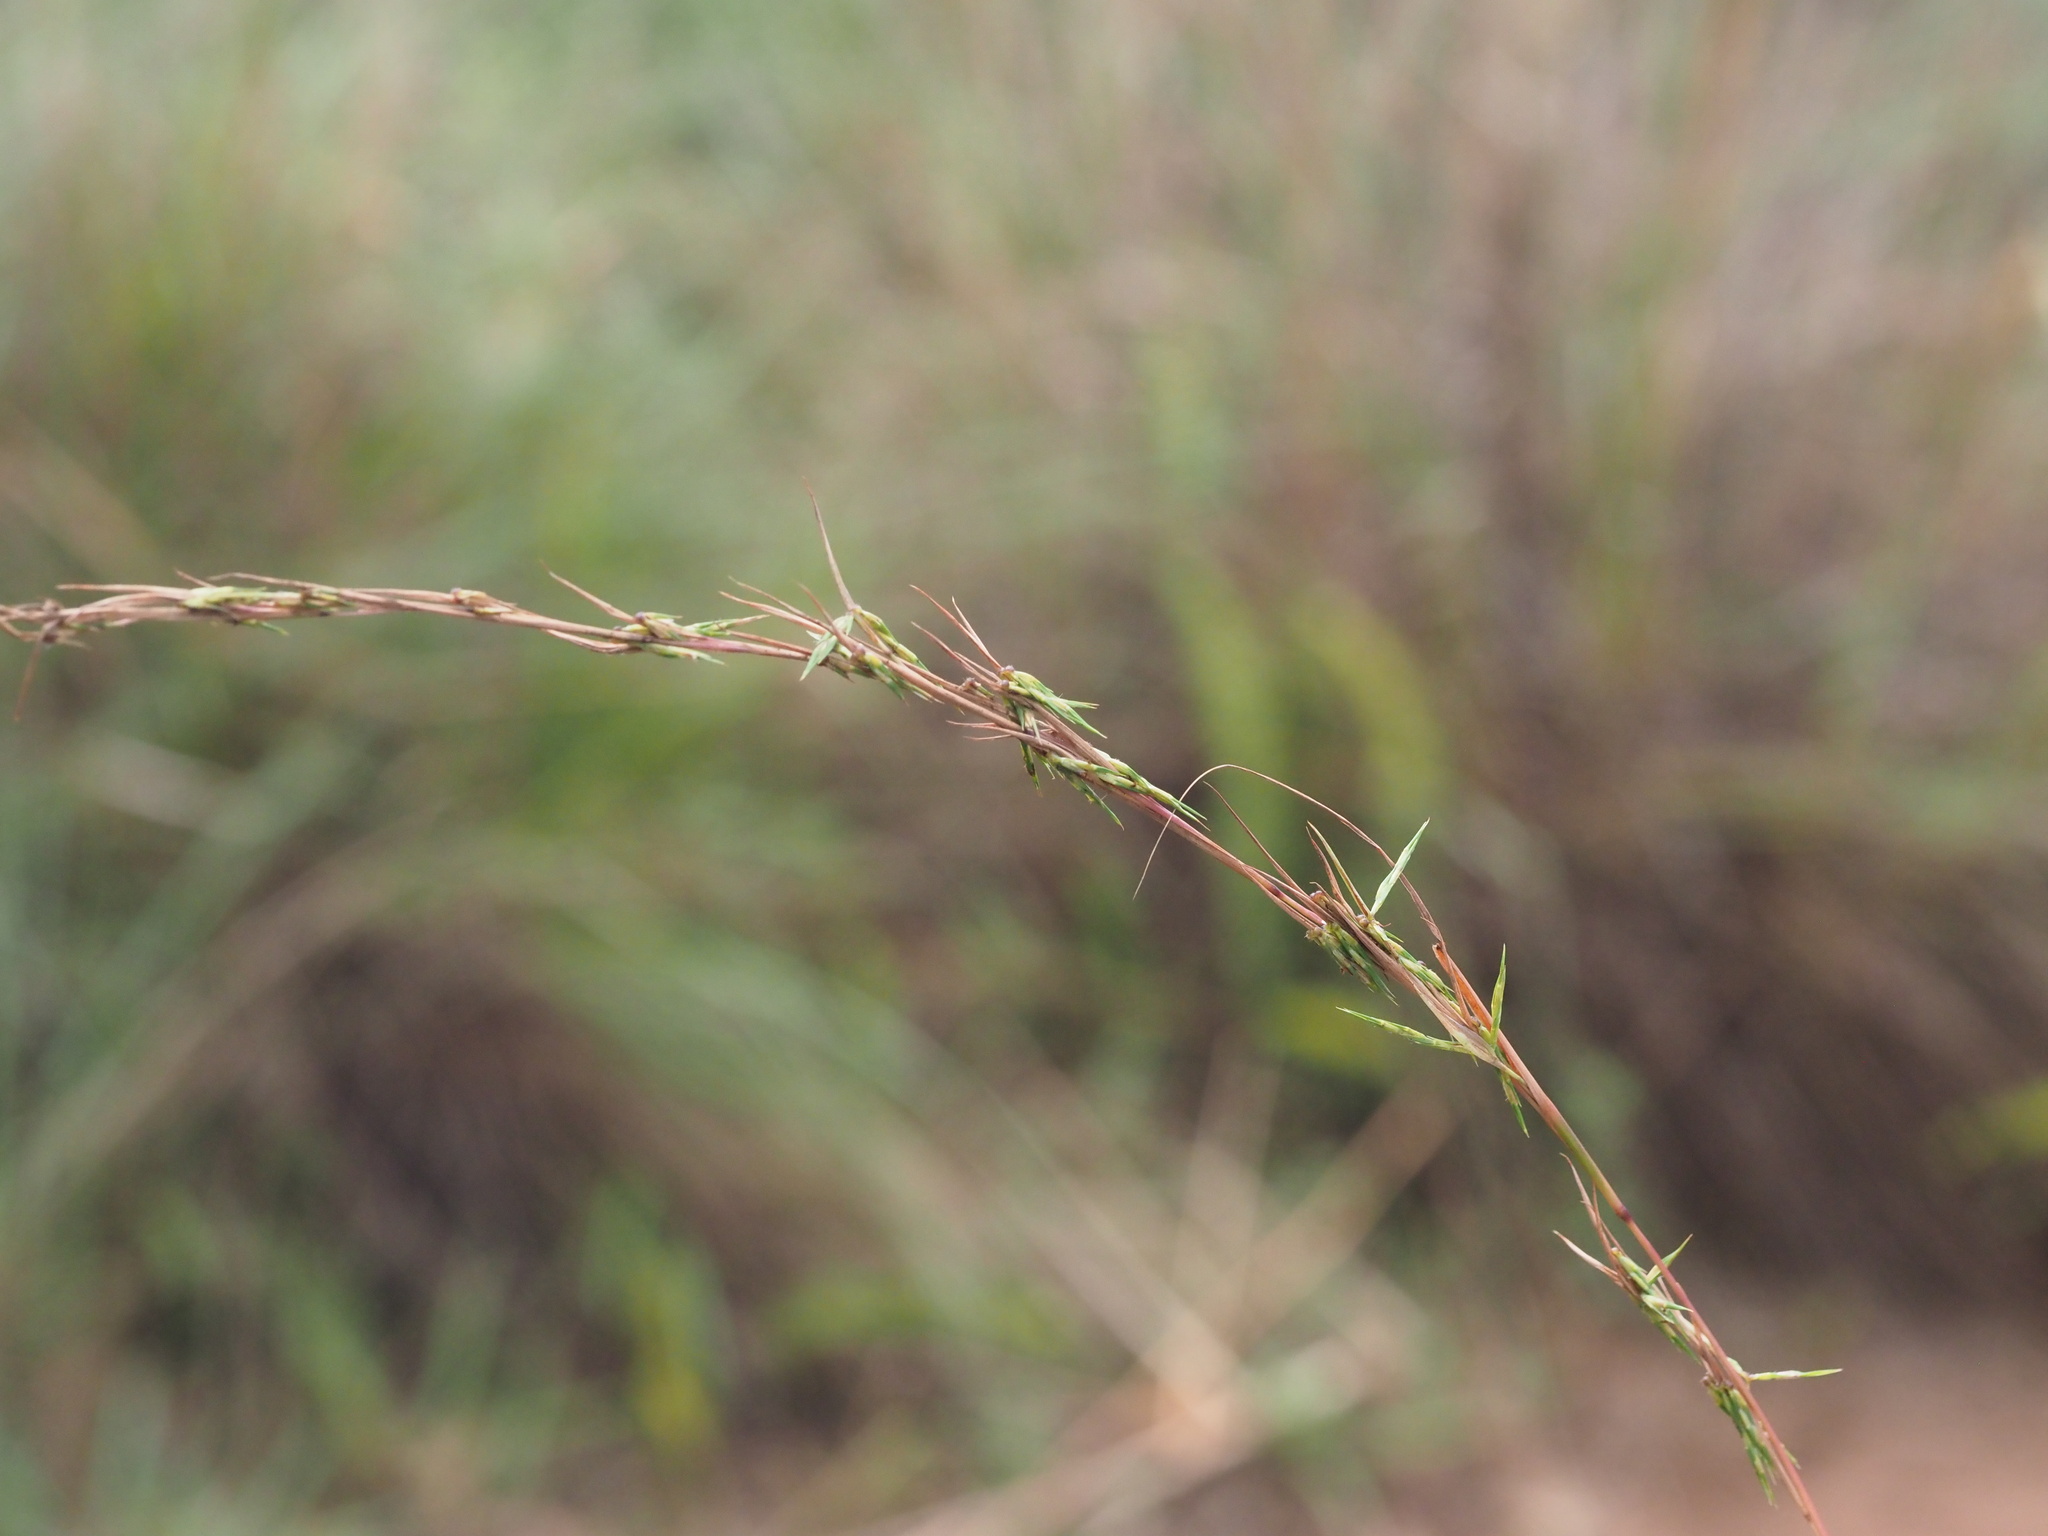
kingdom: Plantae
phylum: Tracheophyta
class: Liliopsida
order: Poales
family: Poaceae
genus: Cymbopogon
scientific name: Cymbopogon refractus
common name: Barbwire grass
